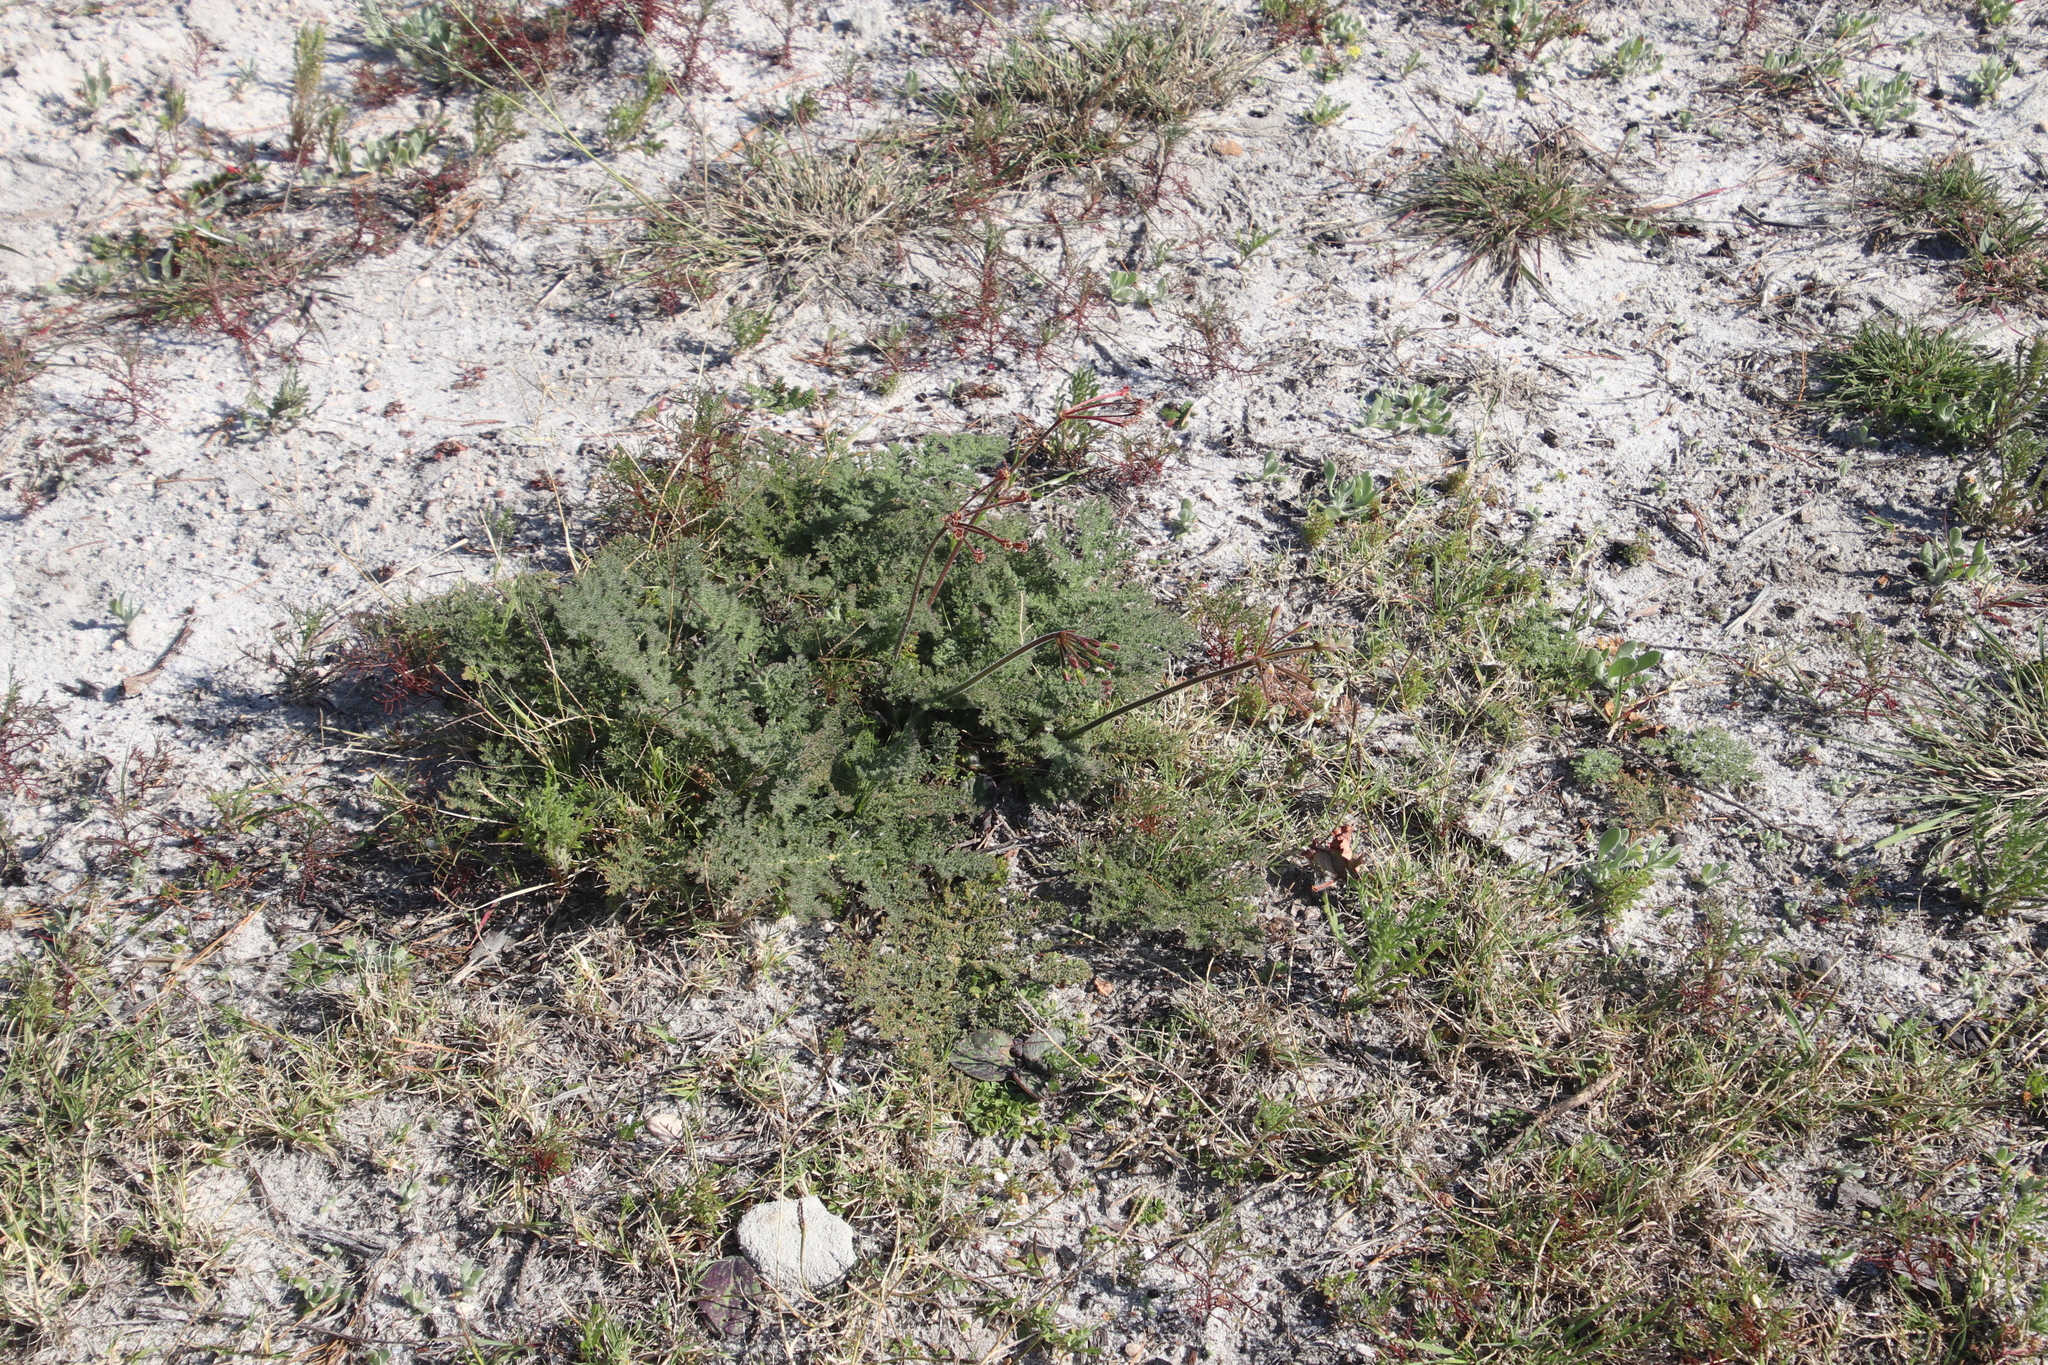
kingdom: Plantae
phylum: Tracheophyta
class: Magnoliopsida
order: Geraniales
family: Geraniaceae
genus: Pelargonium
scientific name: Pelargonium triste
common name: Night-scent pelargonium
